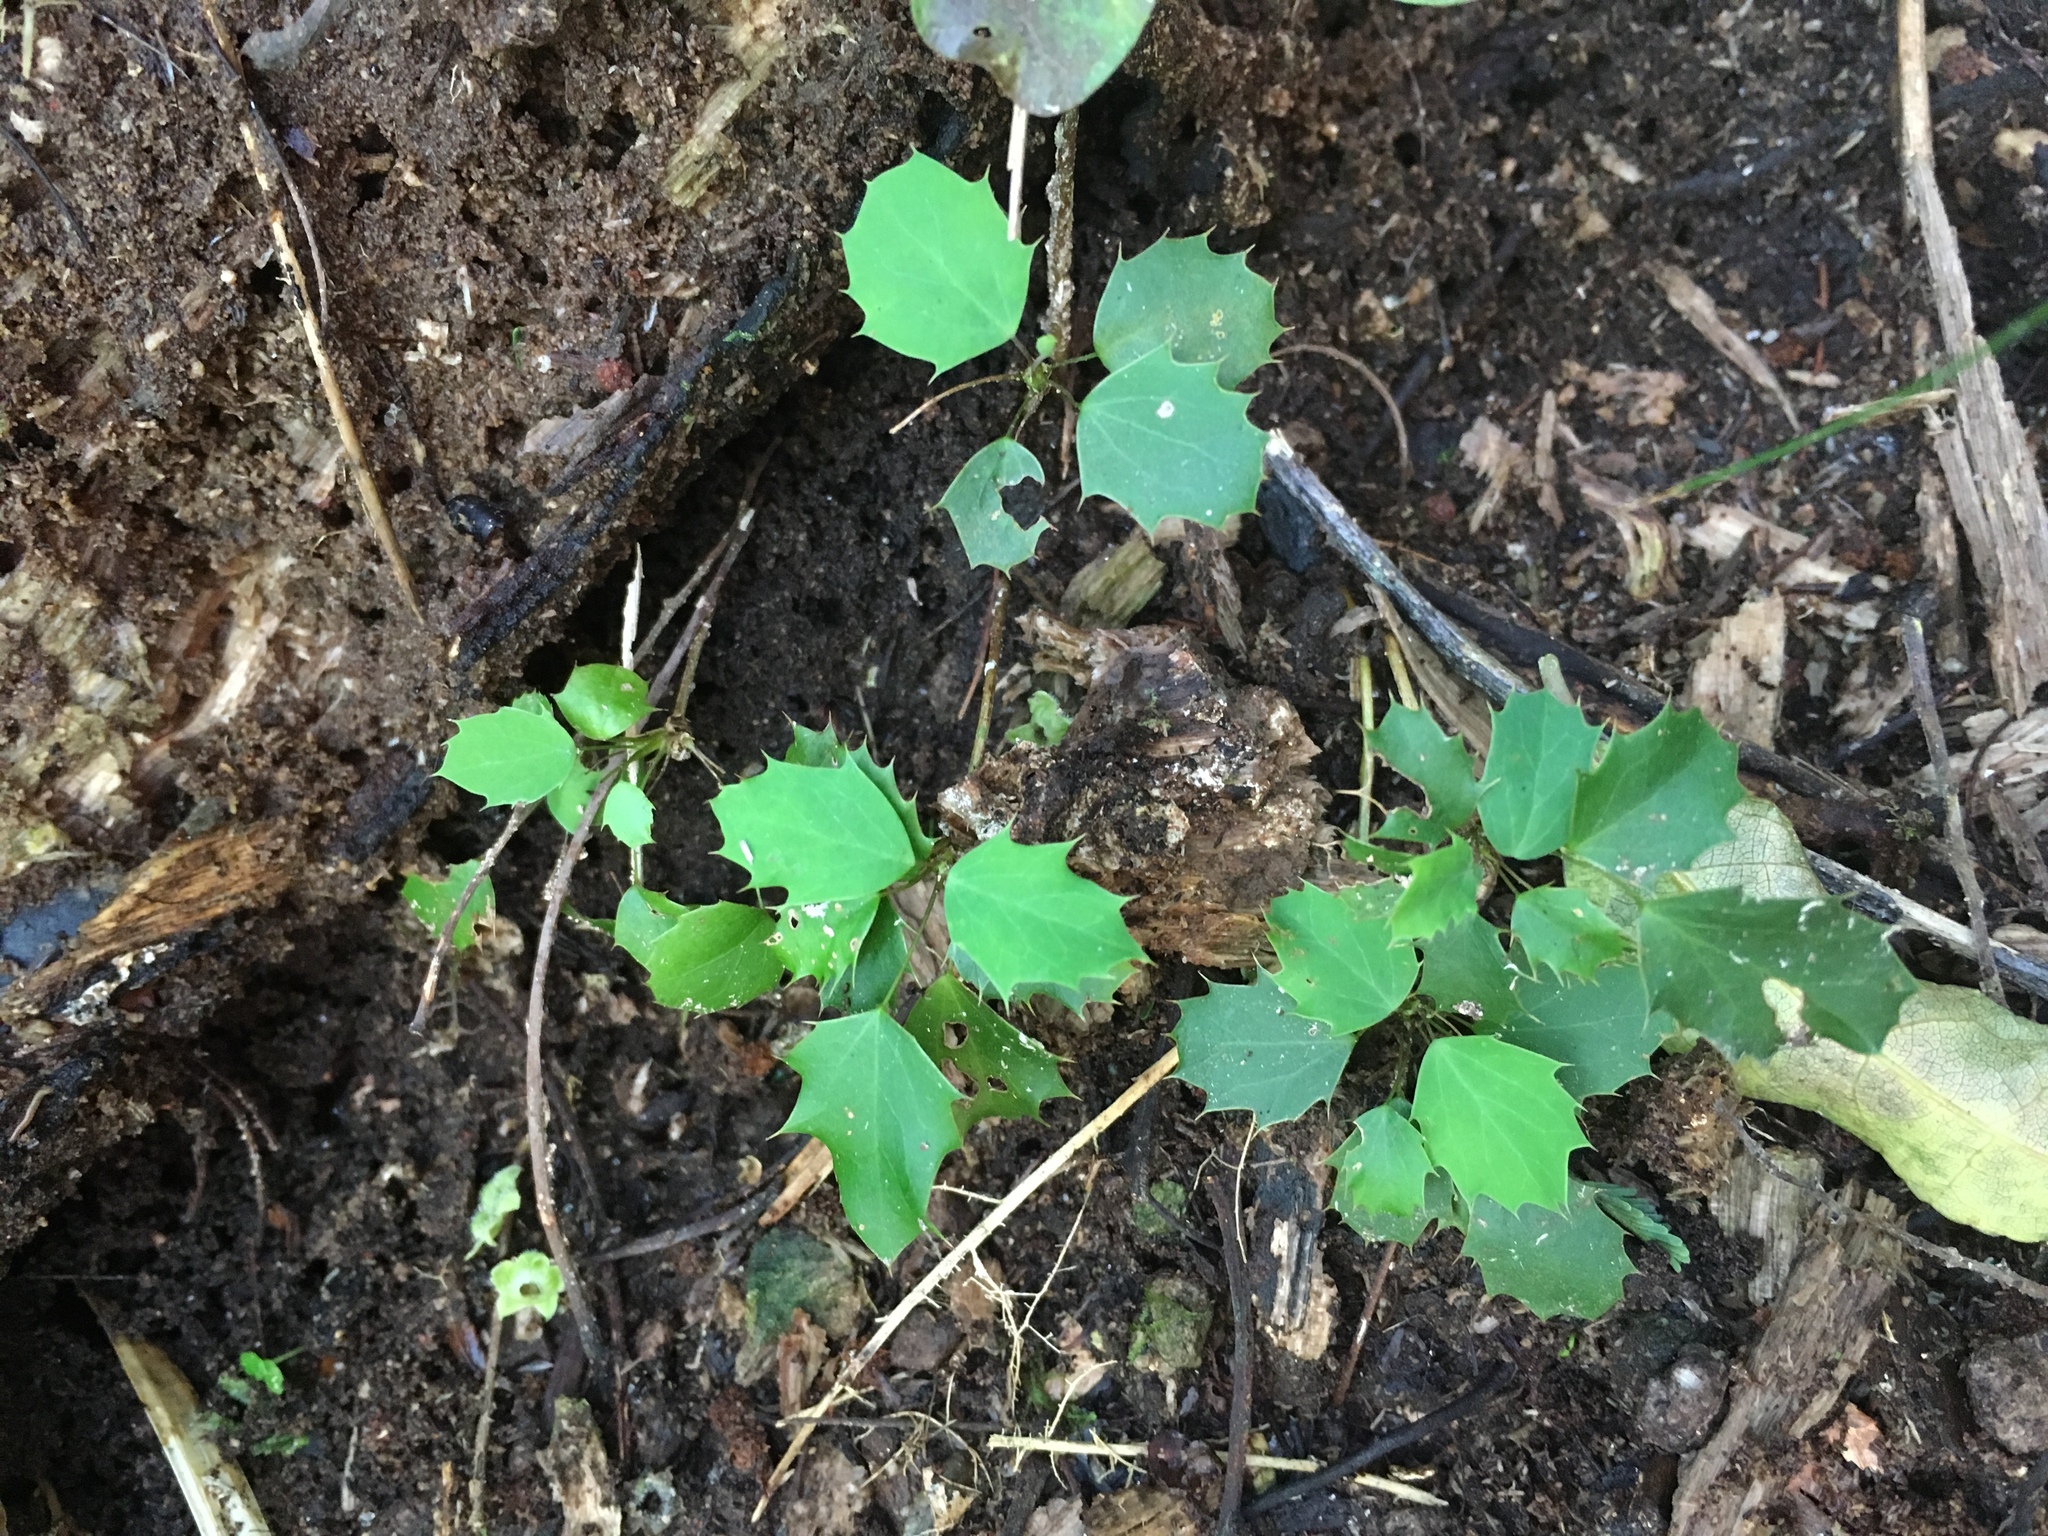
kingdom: Plantae
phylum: Tracheophyta
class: Magnoliopsida
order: Ranunculales
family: Berberidaceae
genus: Berberis
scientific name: Berberis glaucocarpa
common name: Great barberry
